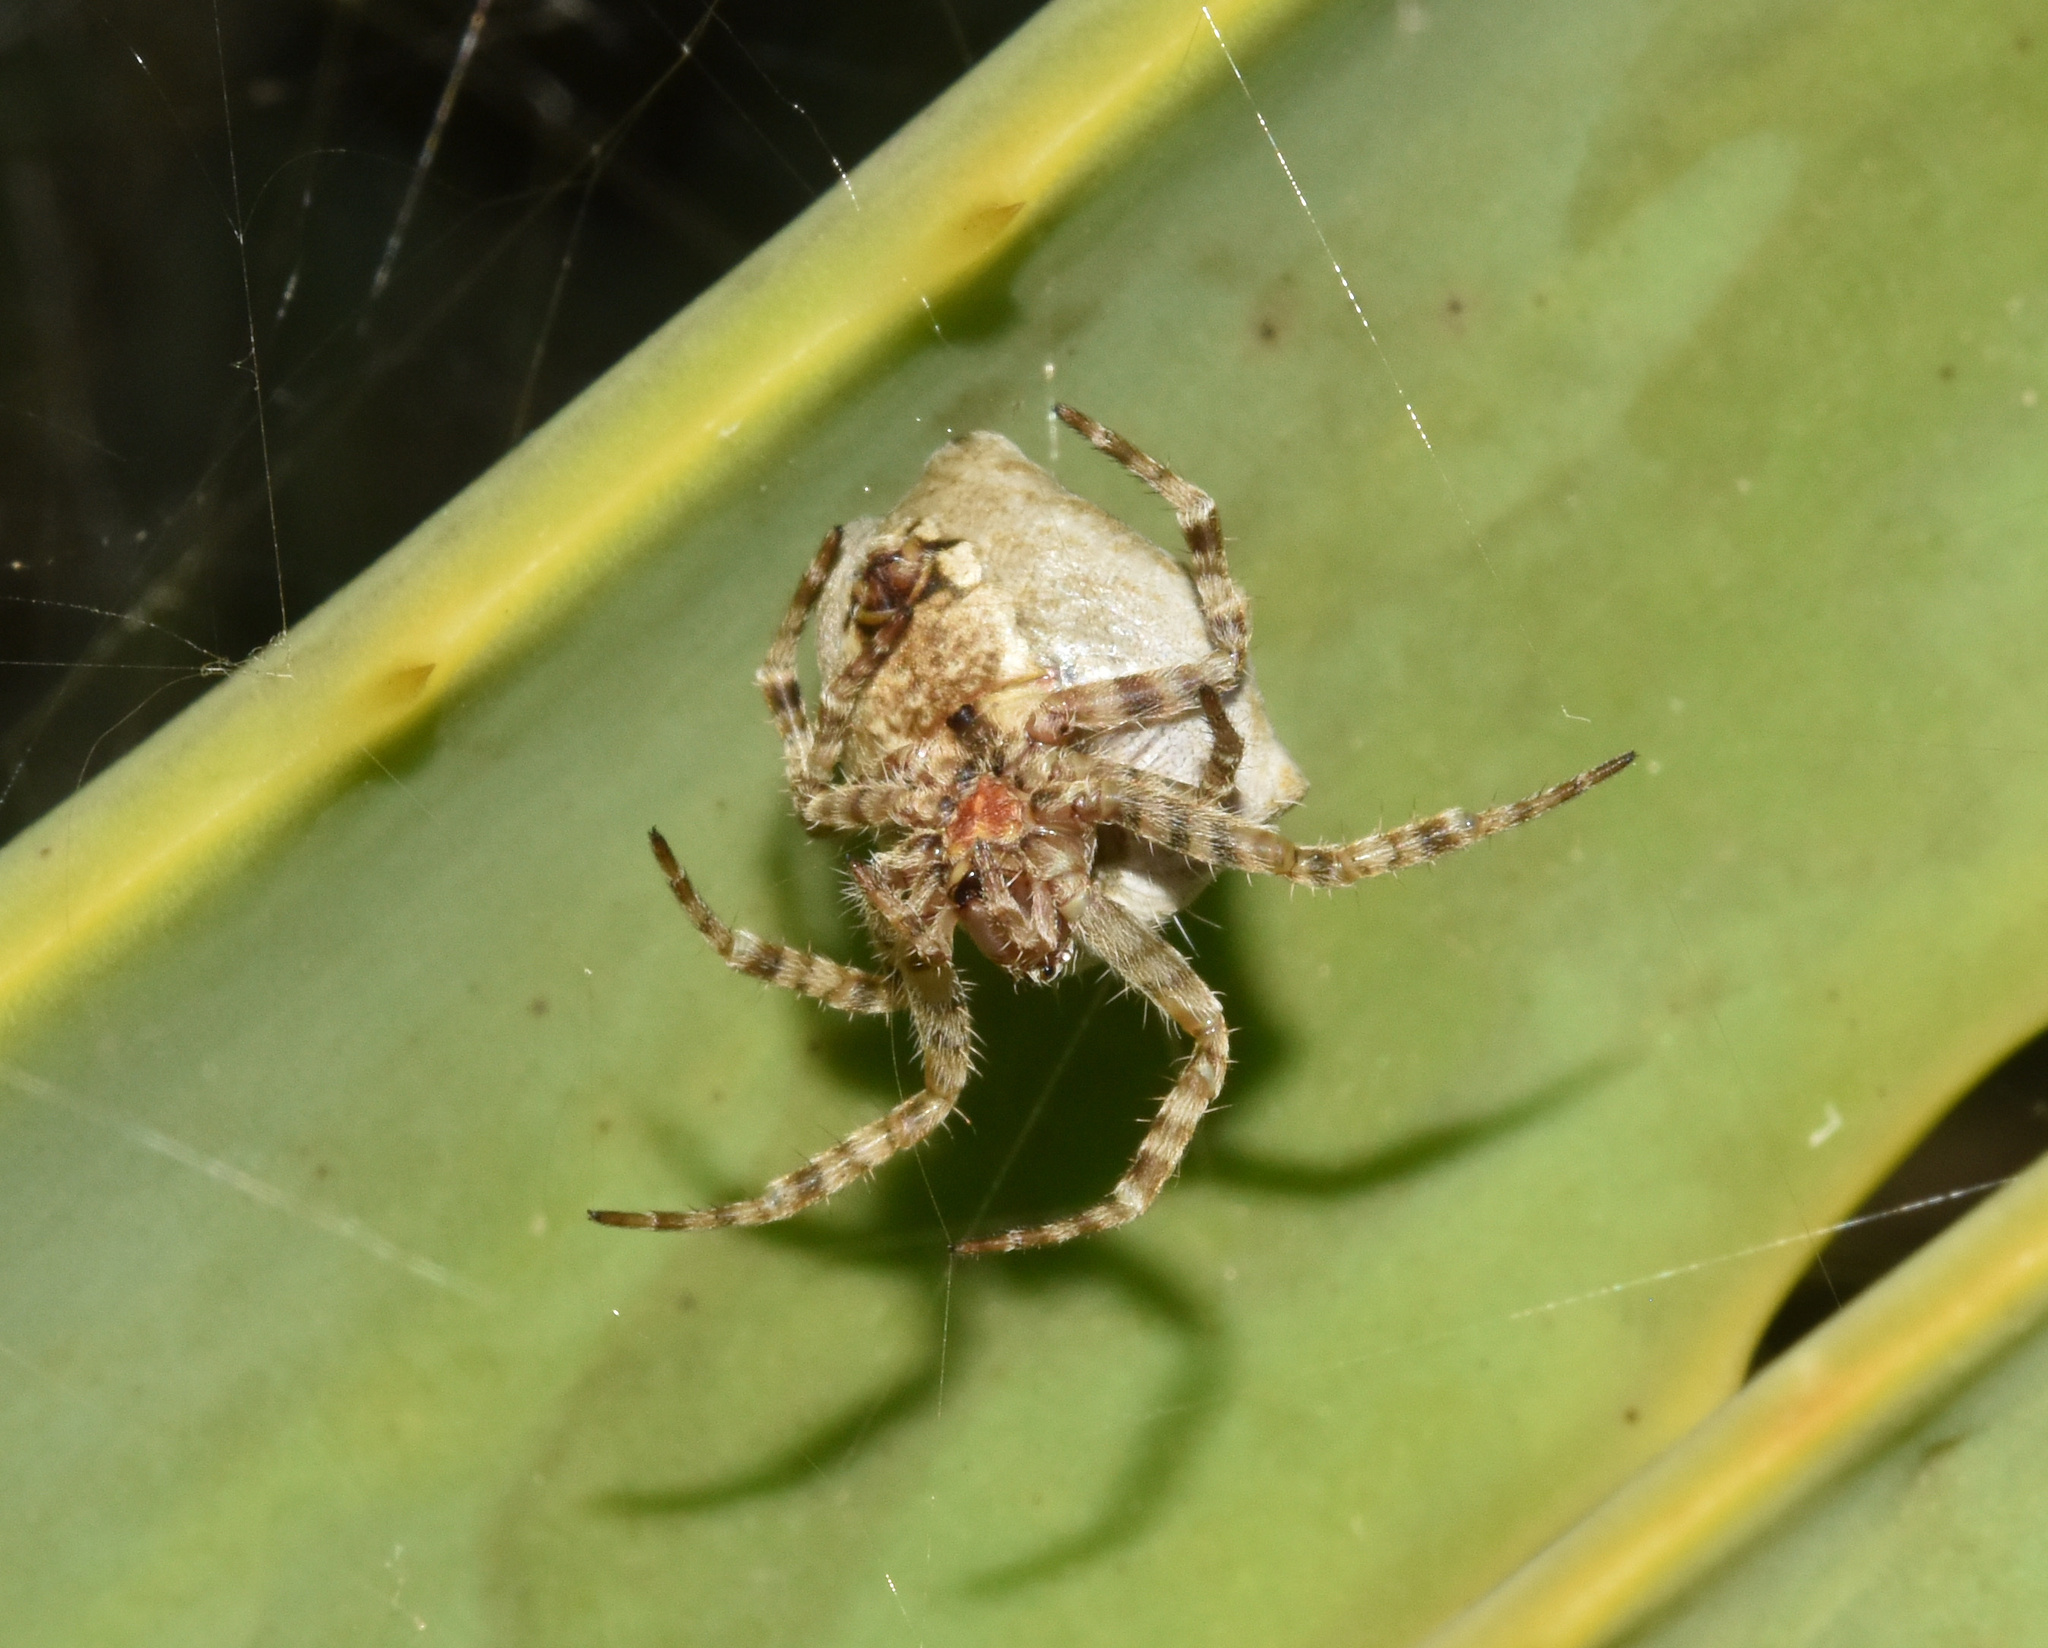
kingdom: Animalia
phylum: Arthropoda
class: Arachnida
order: Araneae
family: Araneidae
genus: Cyrtophora
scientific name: Cyrtophora citricola
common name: Orb weavers
